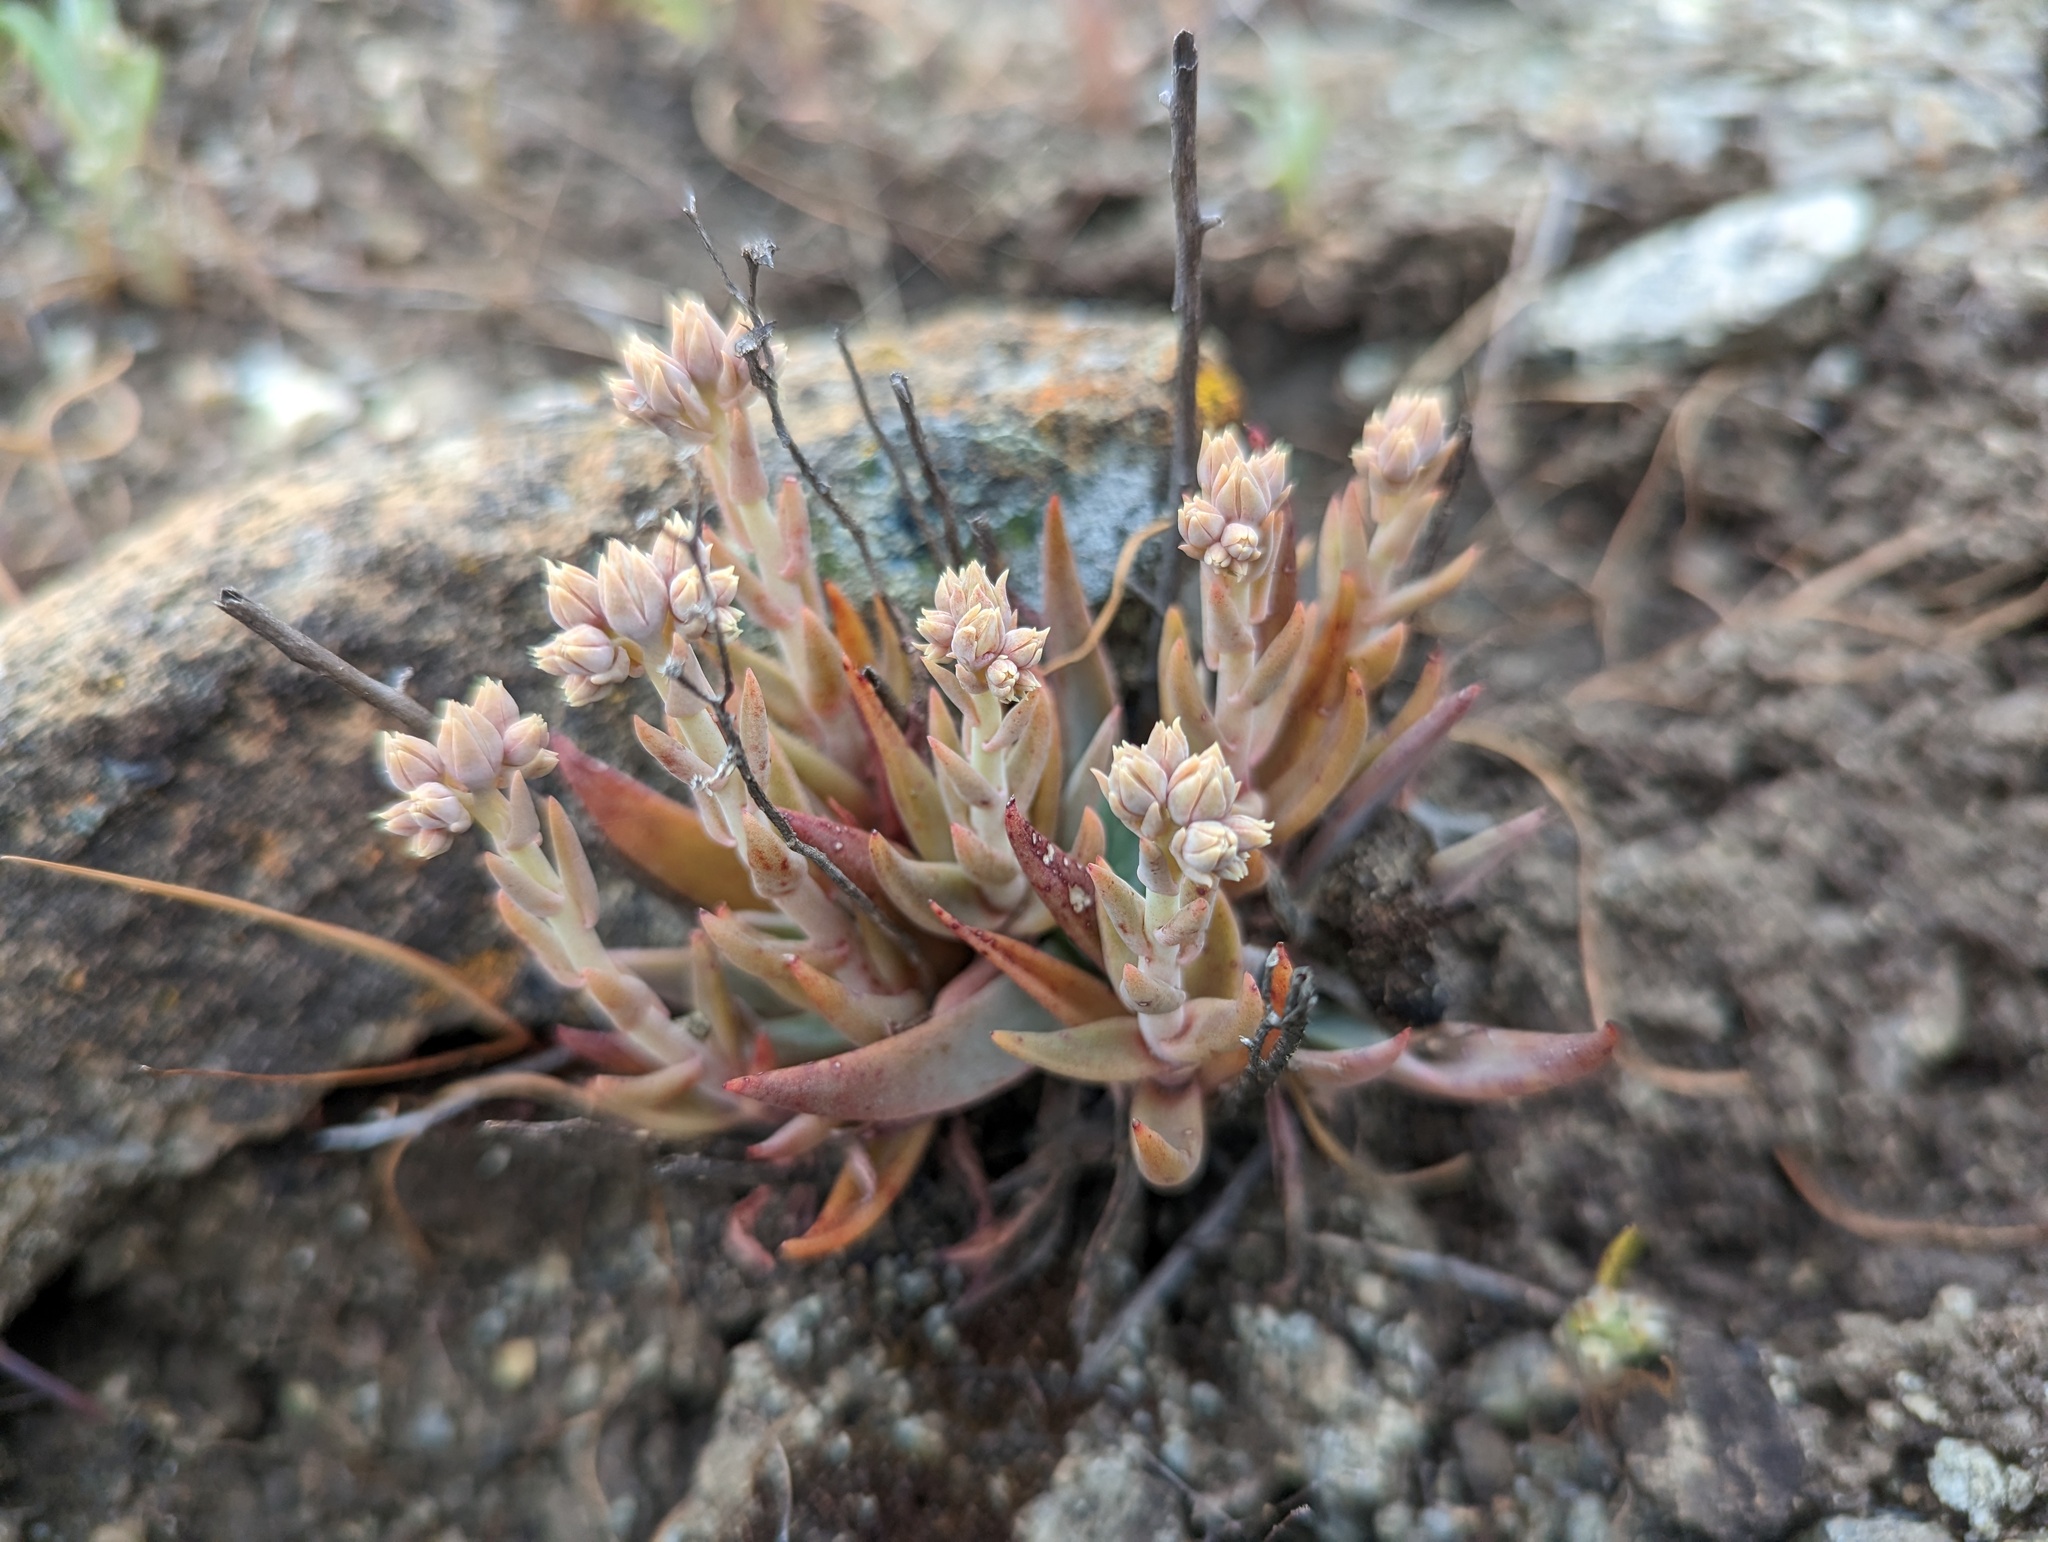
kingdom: Plantae
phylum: Tracheophyta
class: Magnoliopsida
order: Saxifragales
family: Crassulaceae
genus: Dudleya
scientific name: Dudleya abramsii
